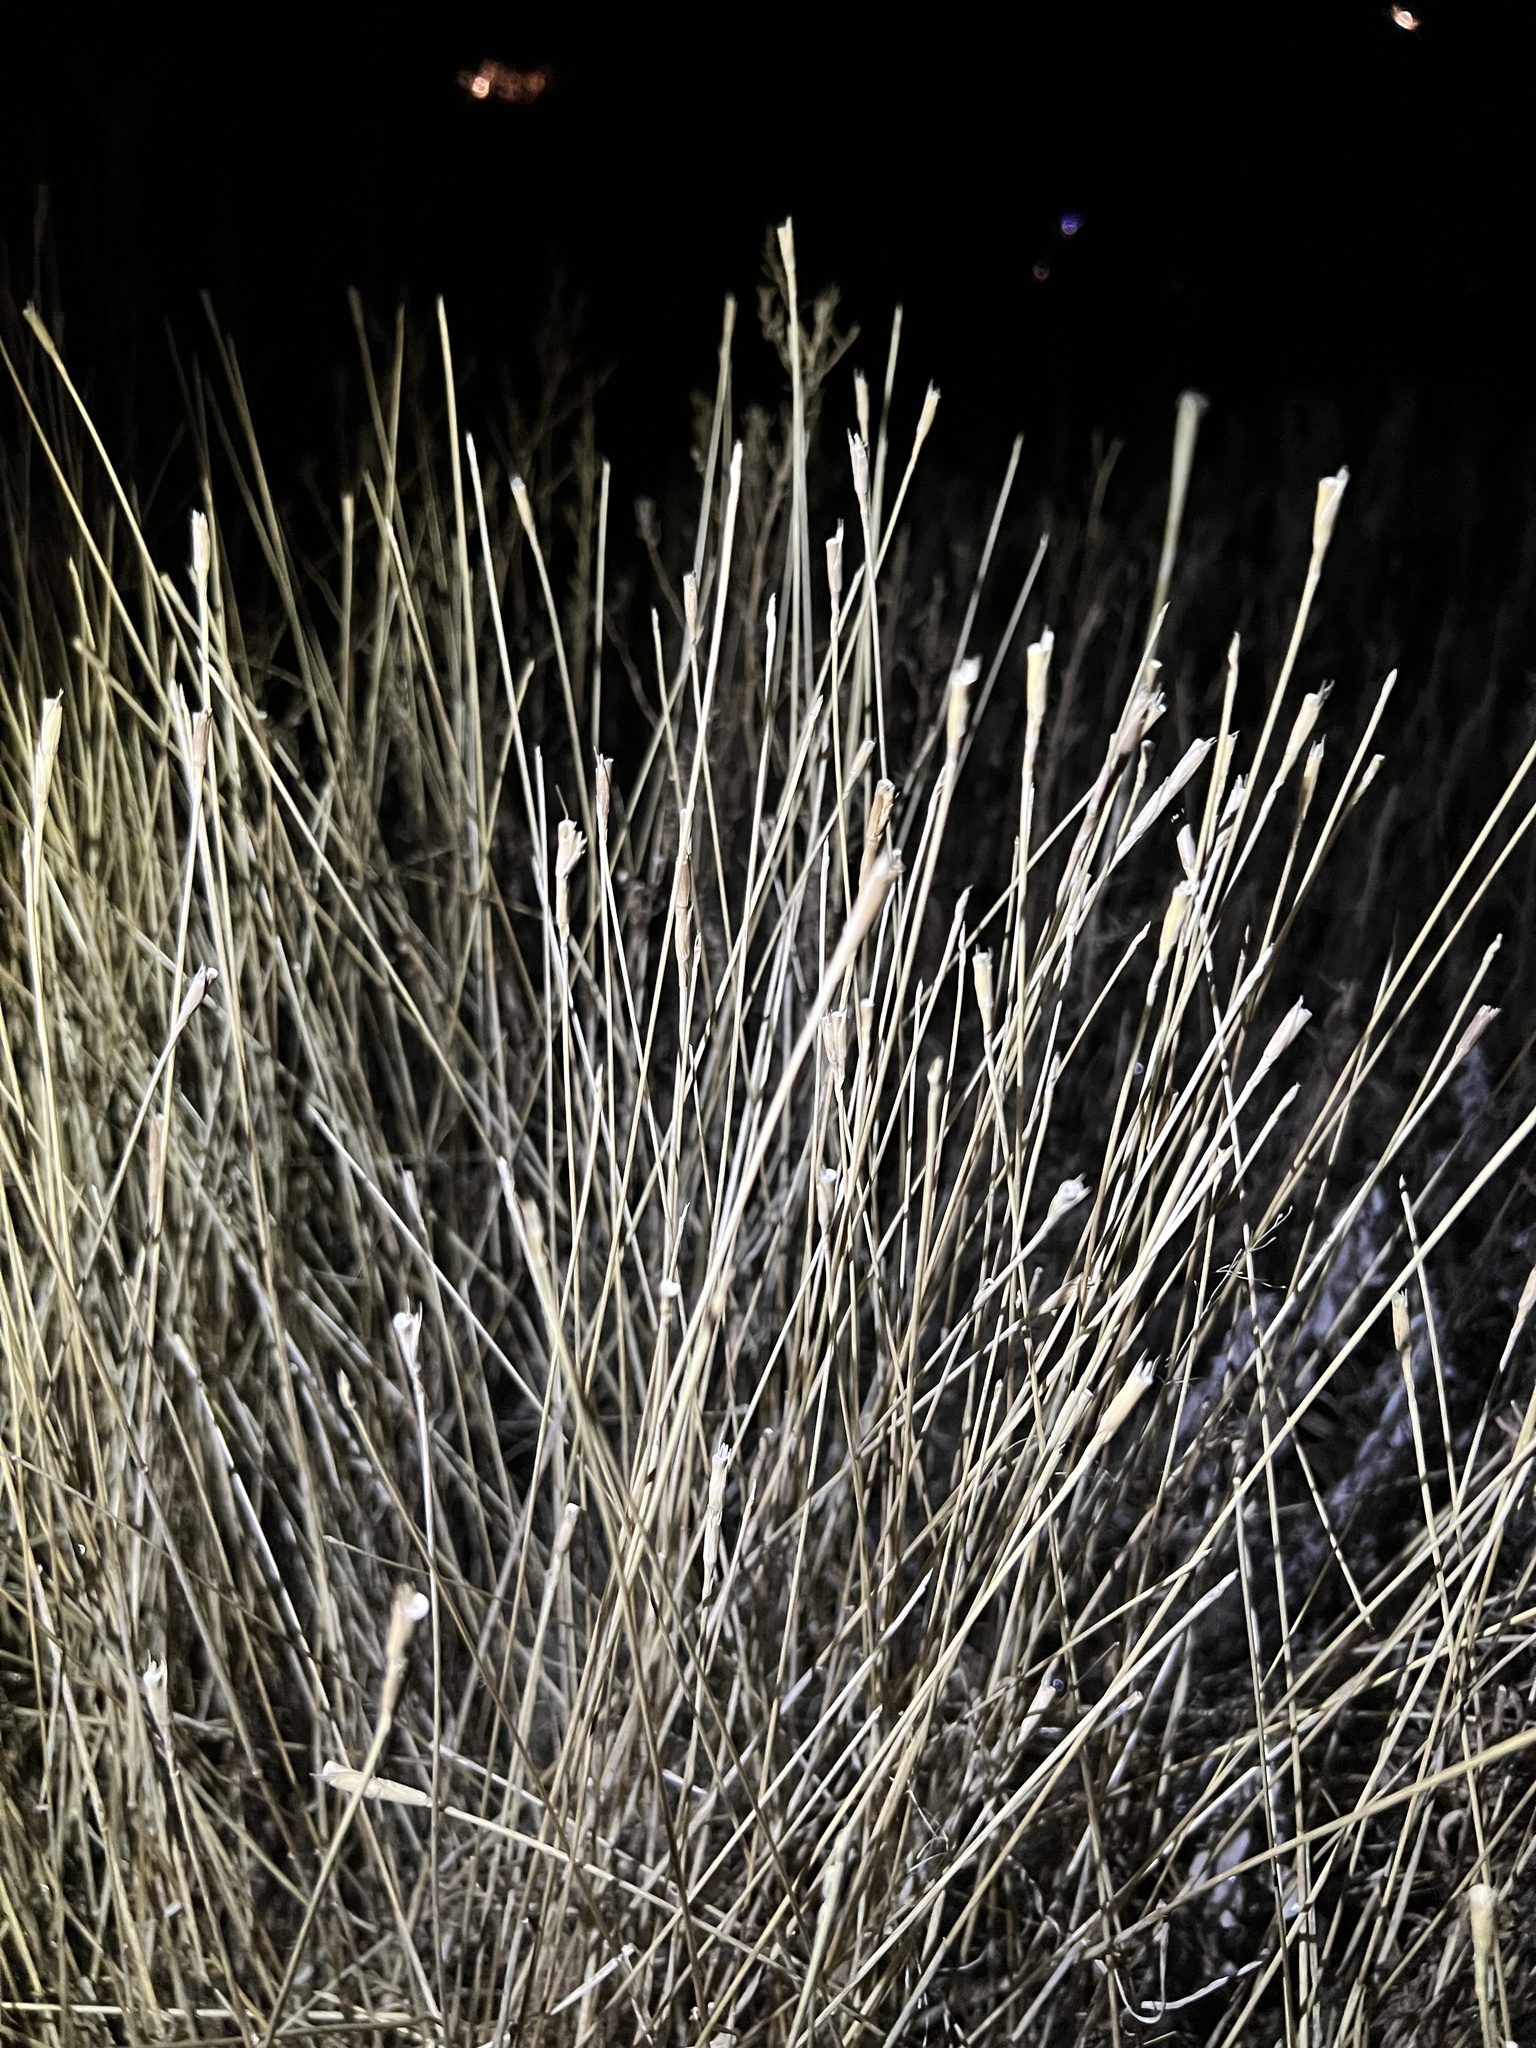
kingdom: Plantae
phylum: Tracheophyta
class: Liliopsida
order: Poales
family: Poaceae
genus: Aegilops
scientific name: Aegilops cylindrica
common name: Jointed goatgrass
